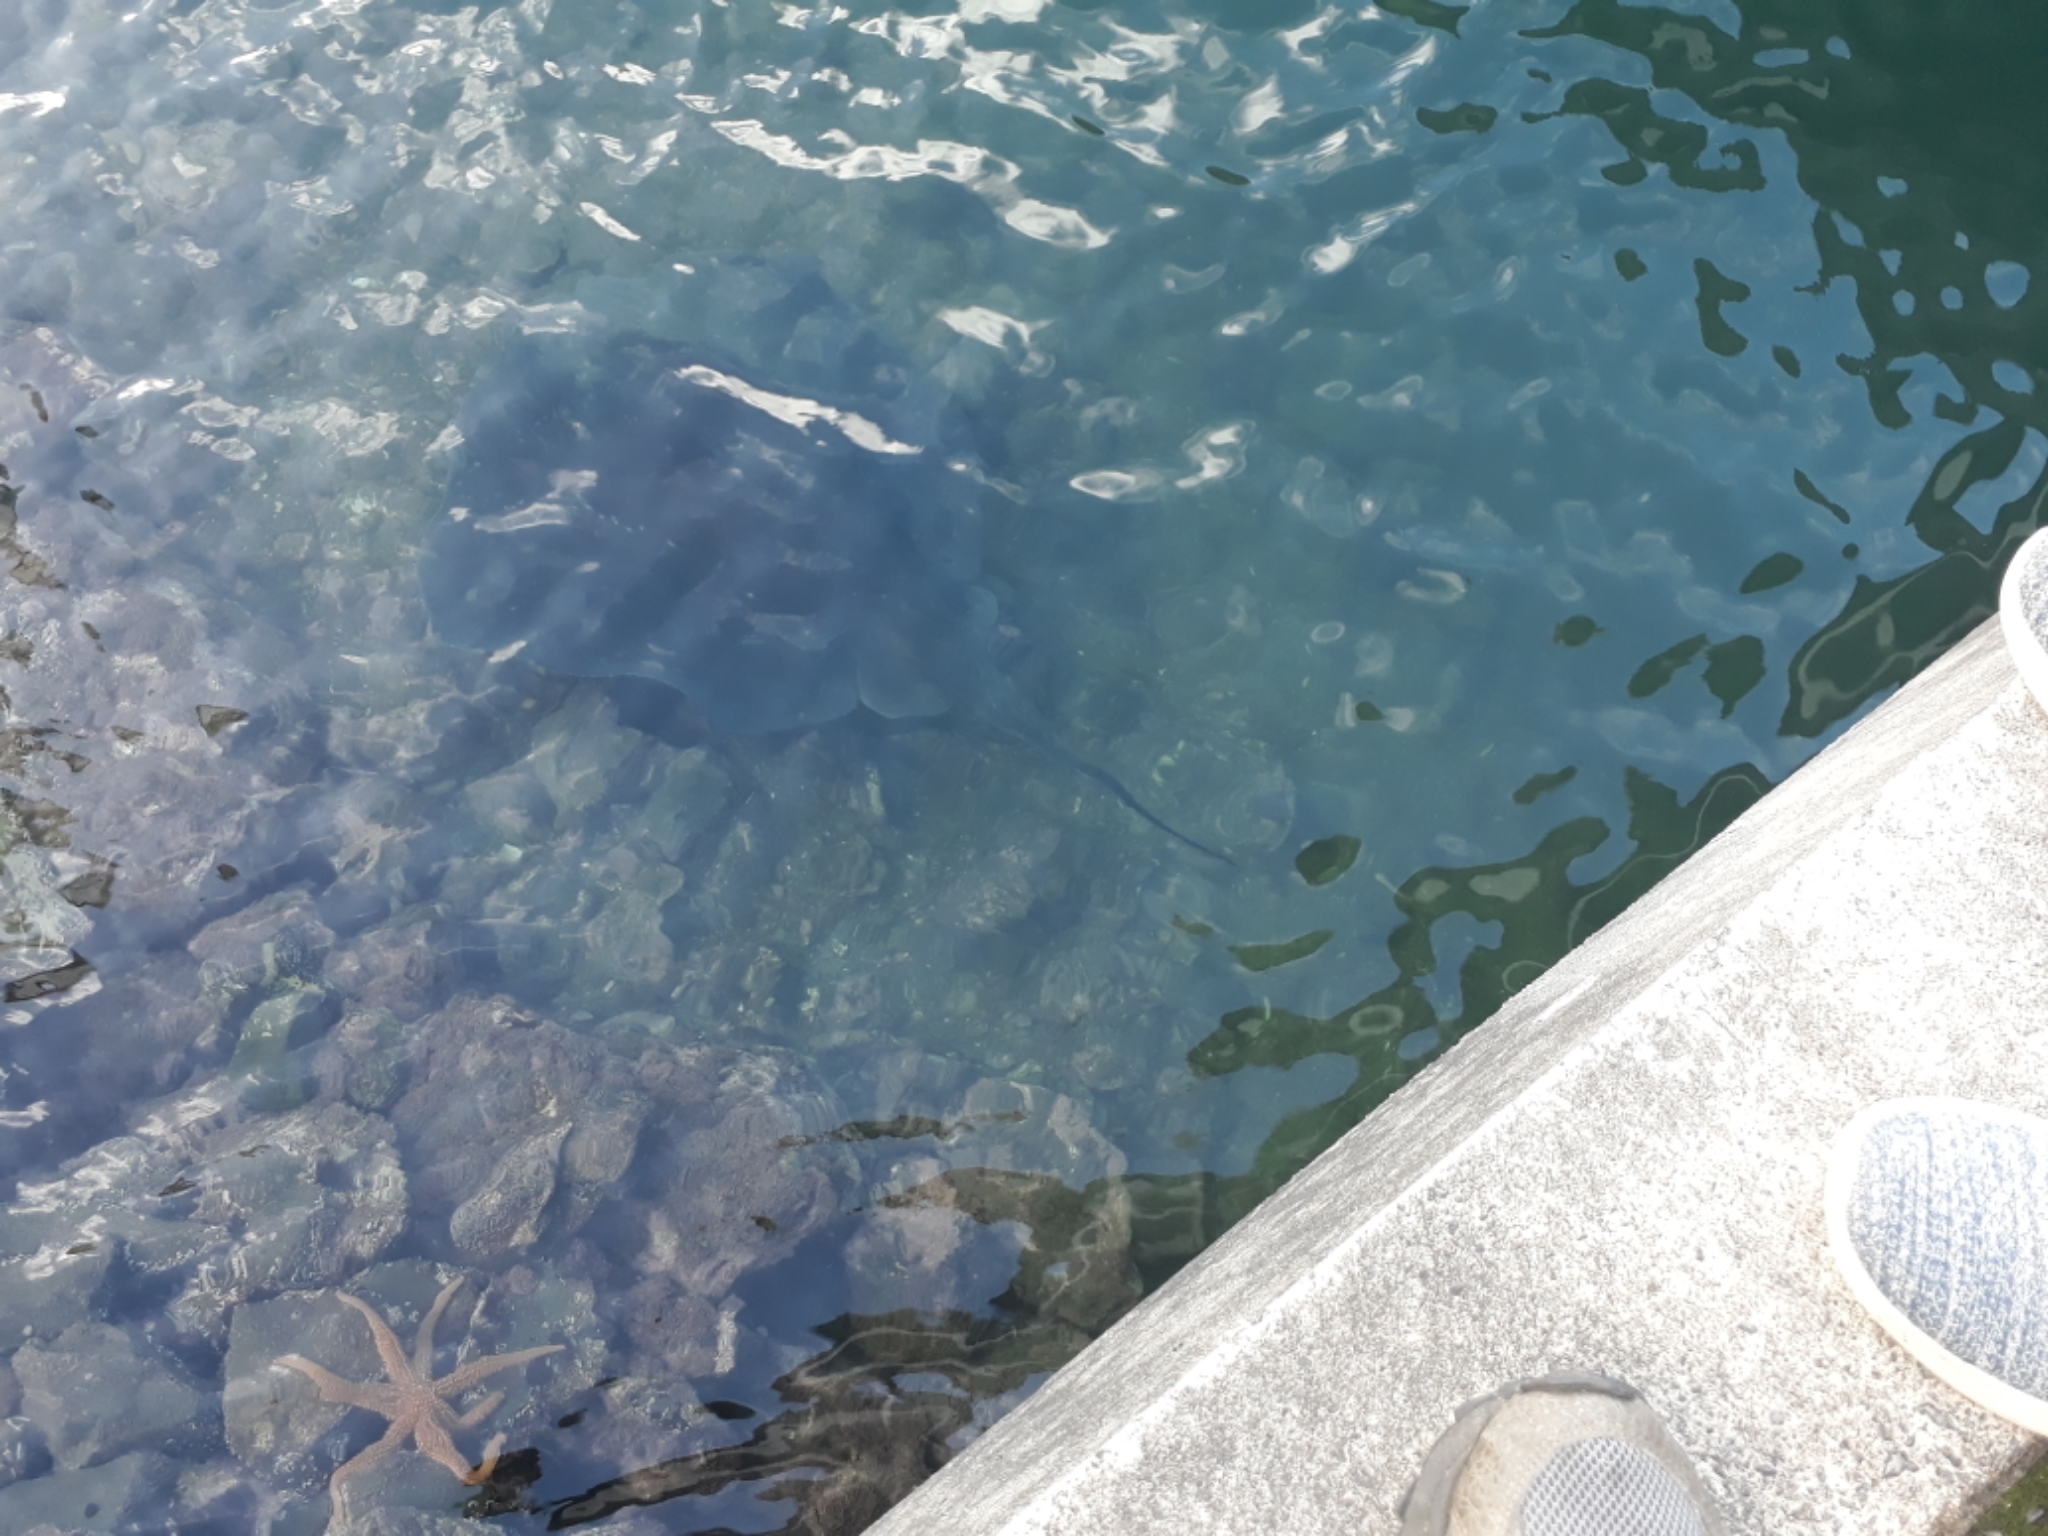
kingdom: Animalia
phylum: Chordata
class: Elasmobranchii
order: Myliobatiformes
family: Dasyatidae
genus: Bathytoshia
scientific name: Bathytoshia brevicaudata
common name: Short-tail stingray
